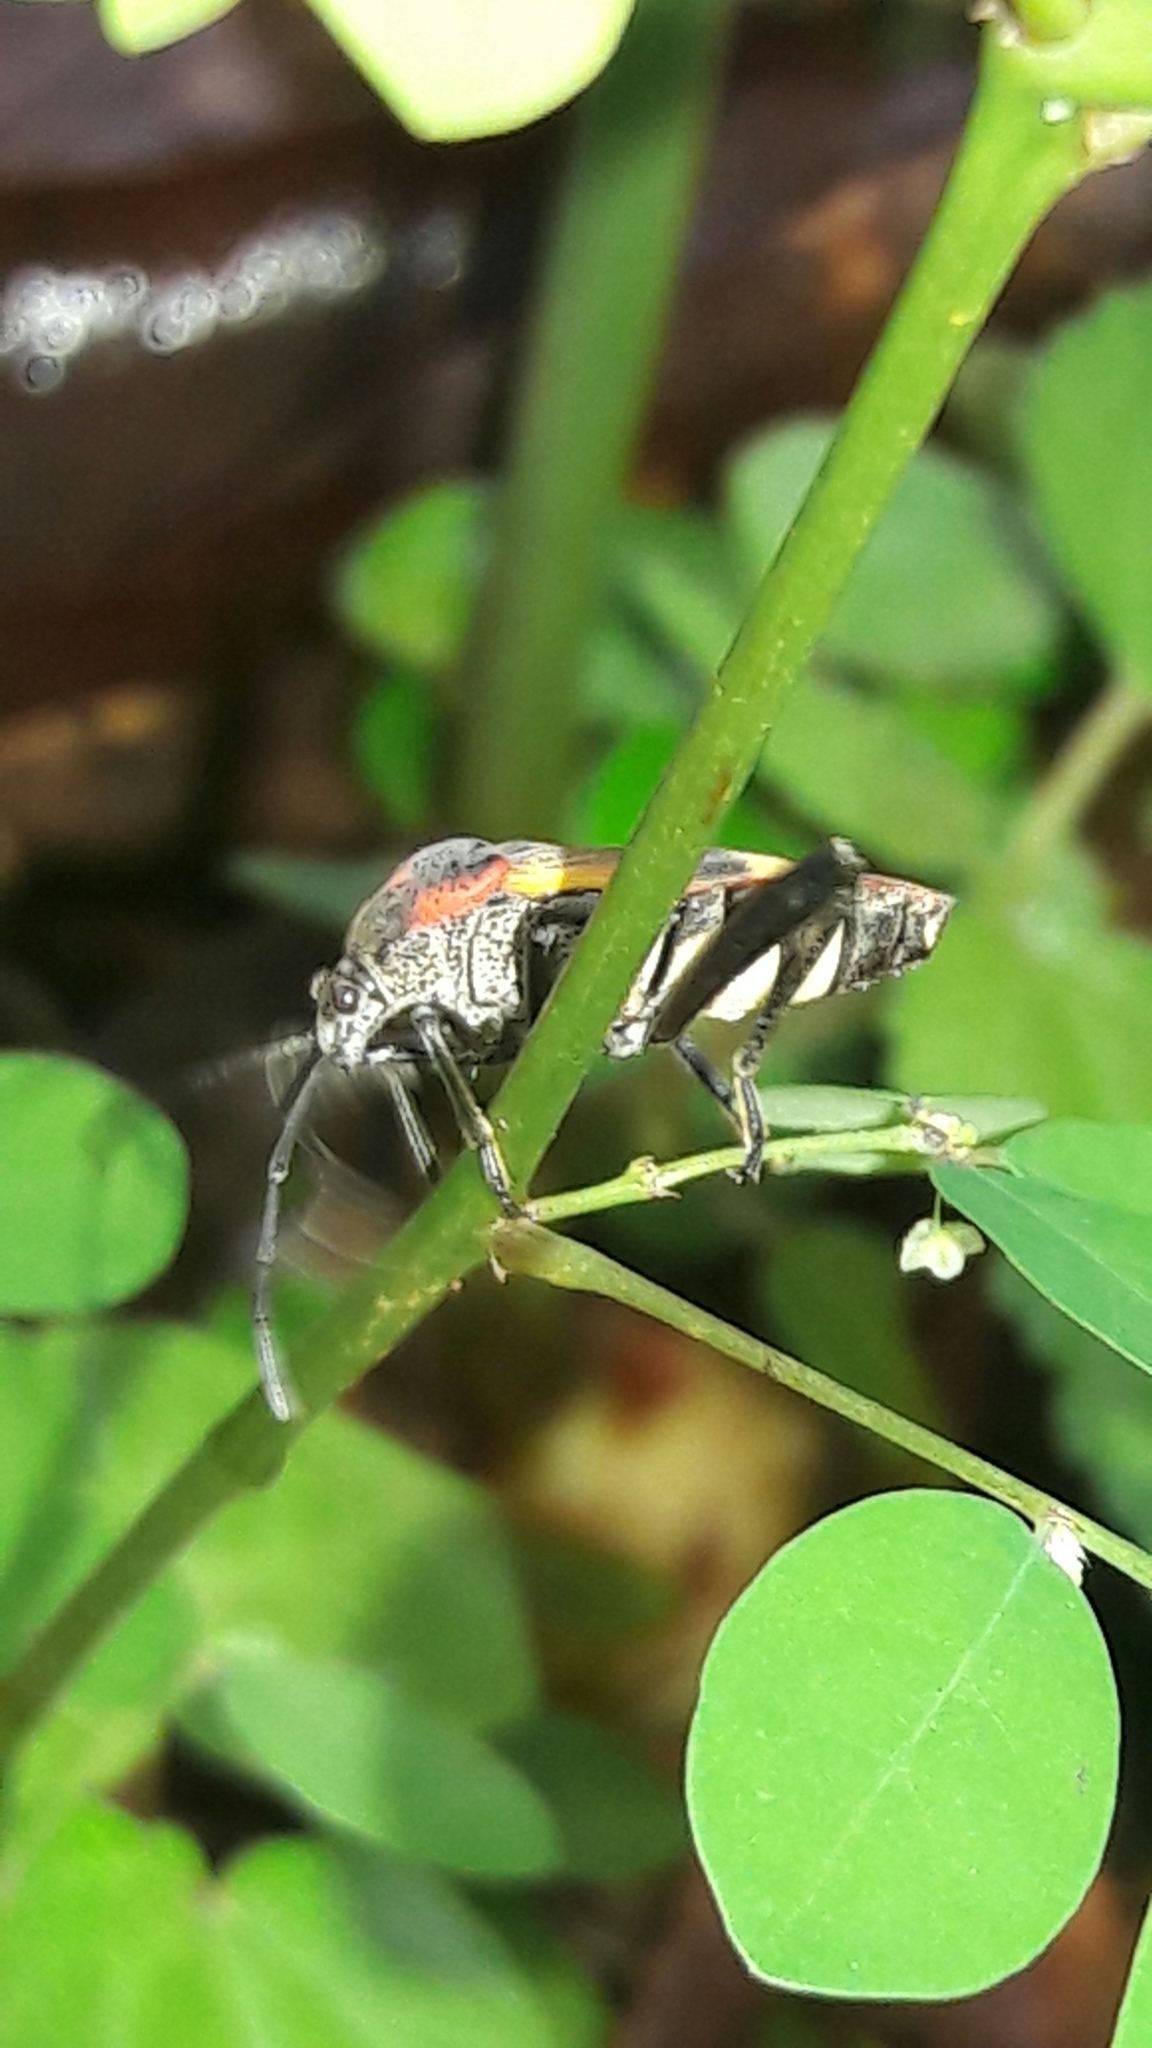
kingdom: Animalia
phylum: Arthropoda
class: Insecta
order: Hemiptera
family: Largidae
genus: Largus
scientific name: Largus ceblini
